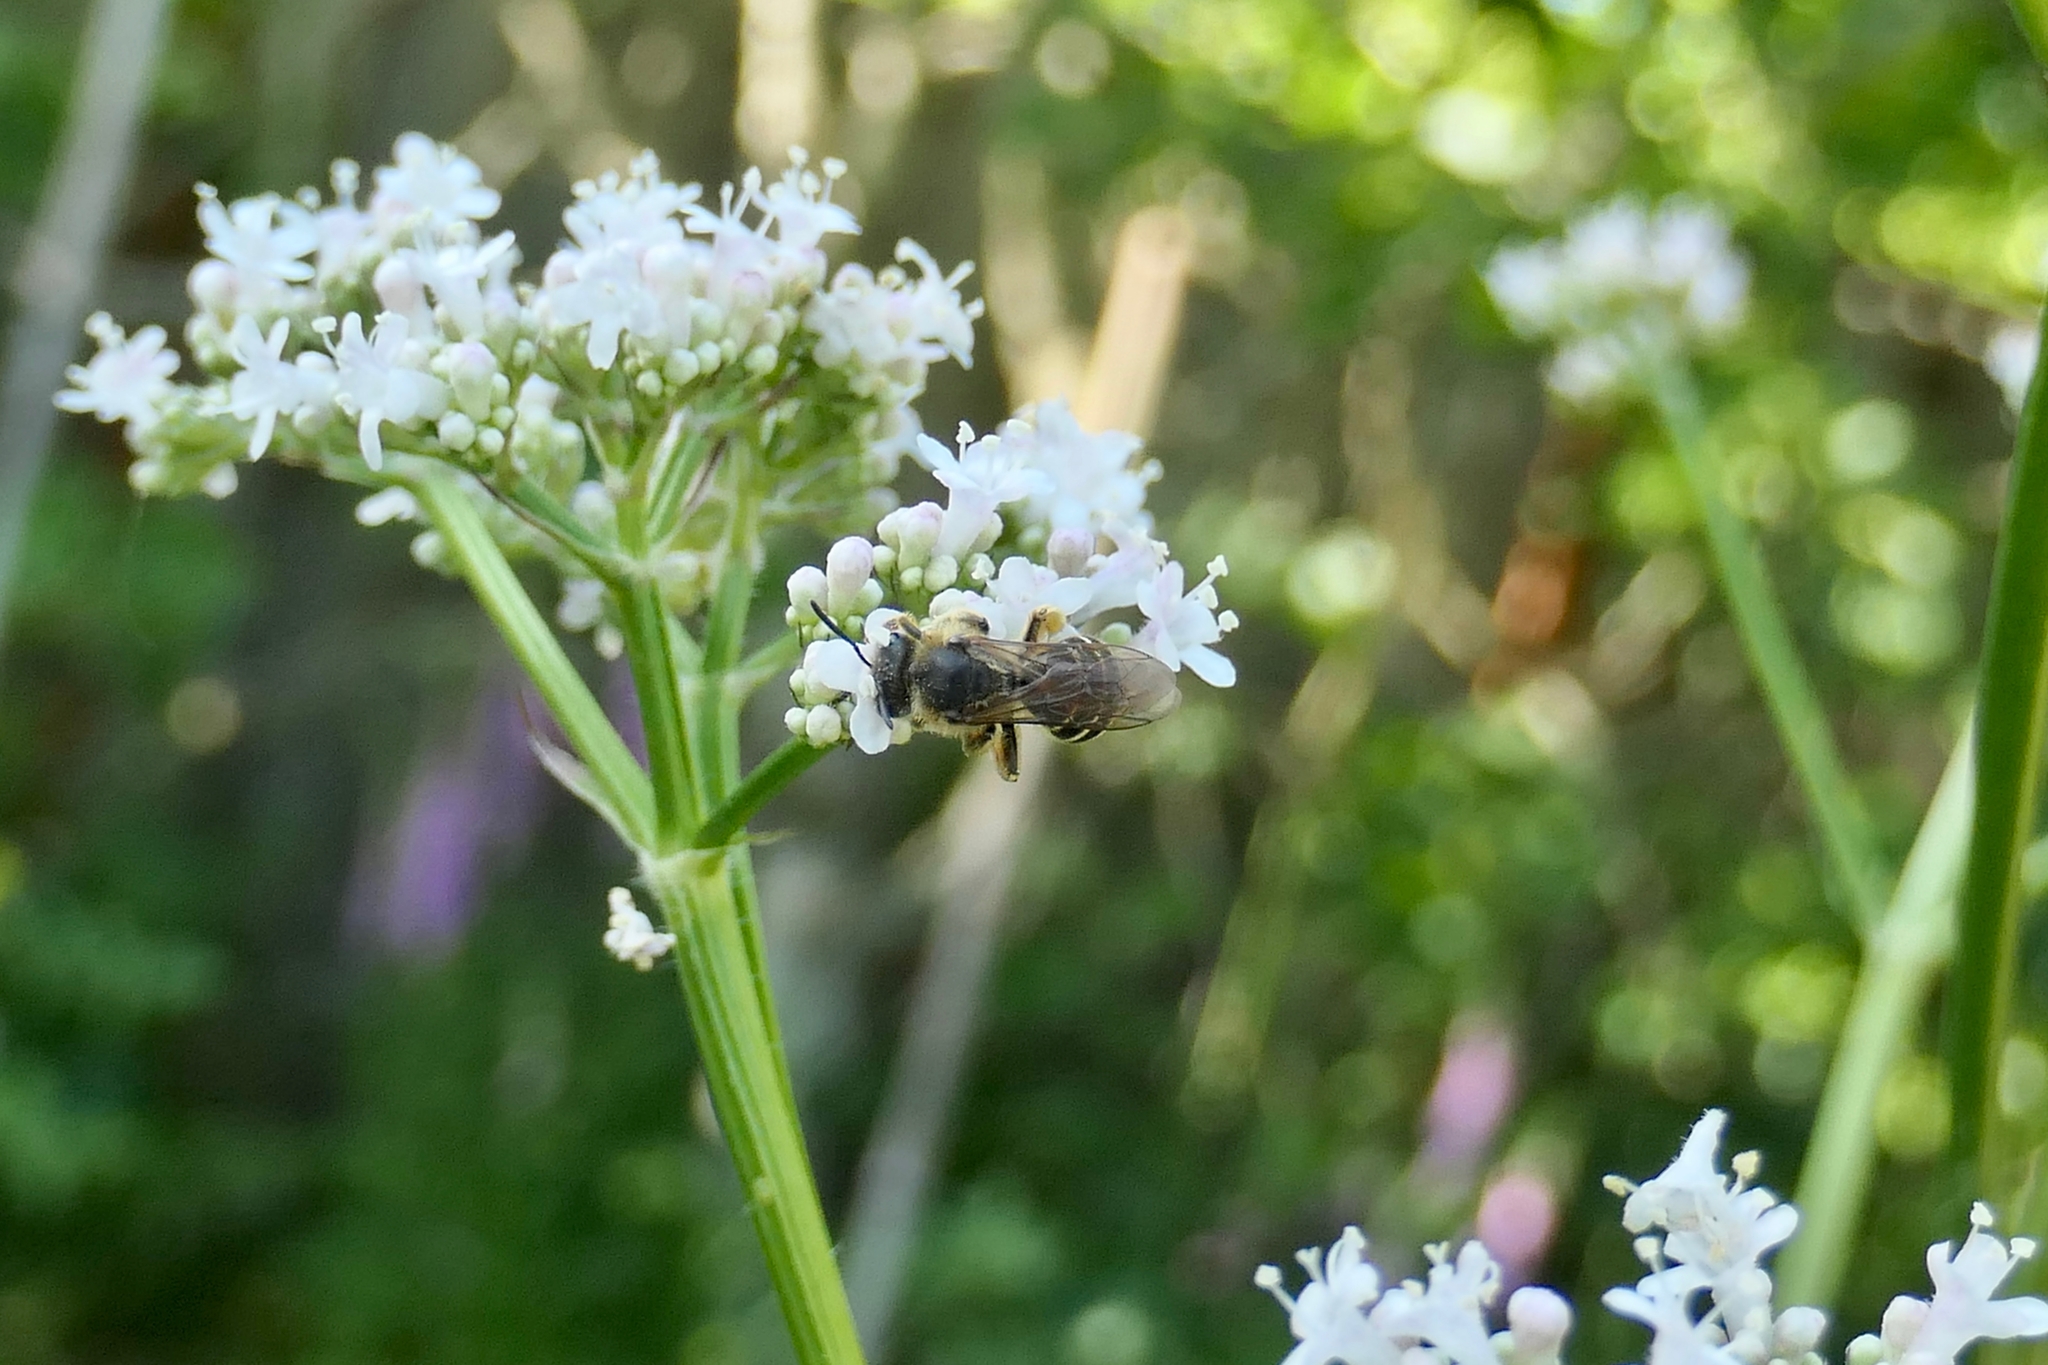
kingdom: Animalia
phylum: Arthropoda
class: Insecta
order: Hymenoptera
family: Halictidae
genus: Halictus
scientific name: Halictus rubicundus
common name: Orange-legged furrow bee
